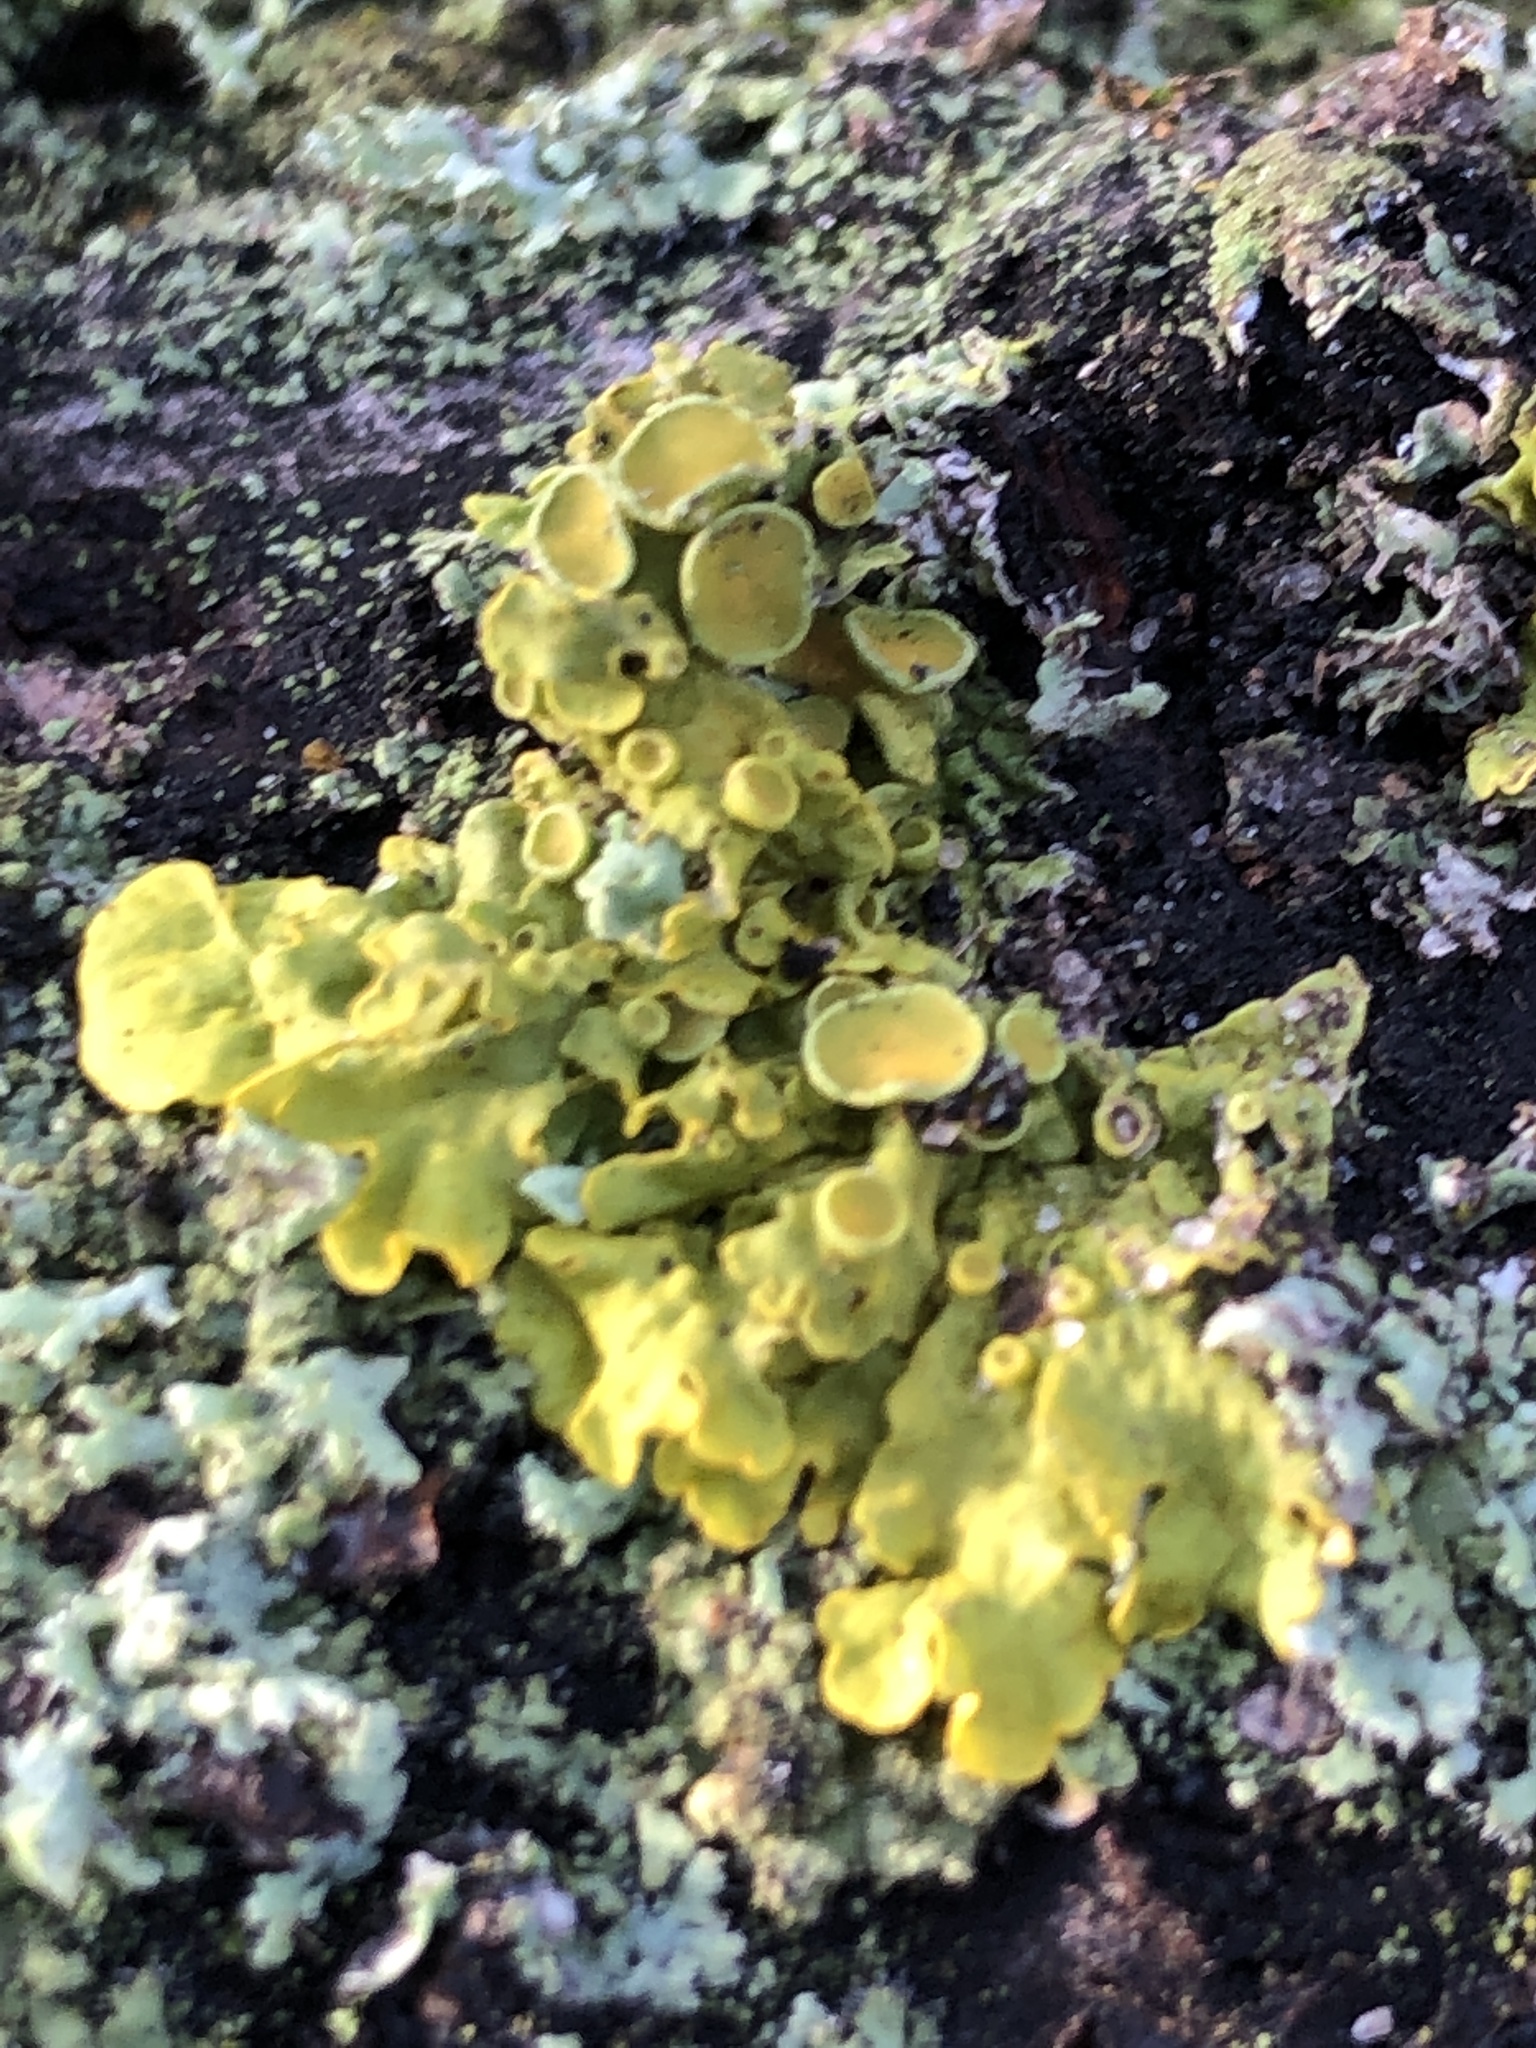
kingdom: Fungi
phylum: Ascomycota
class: Lecanoromycetes
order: Teloschistales
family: Teloschistaceae
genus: Xanthoria
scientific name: Xanthoria parietina
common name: Common orange lichen
